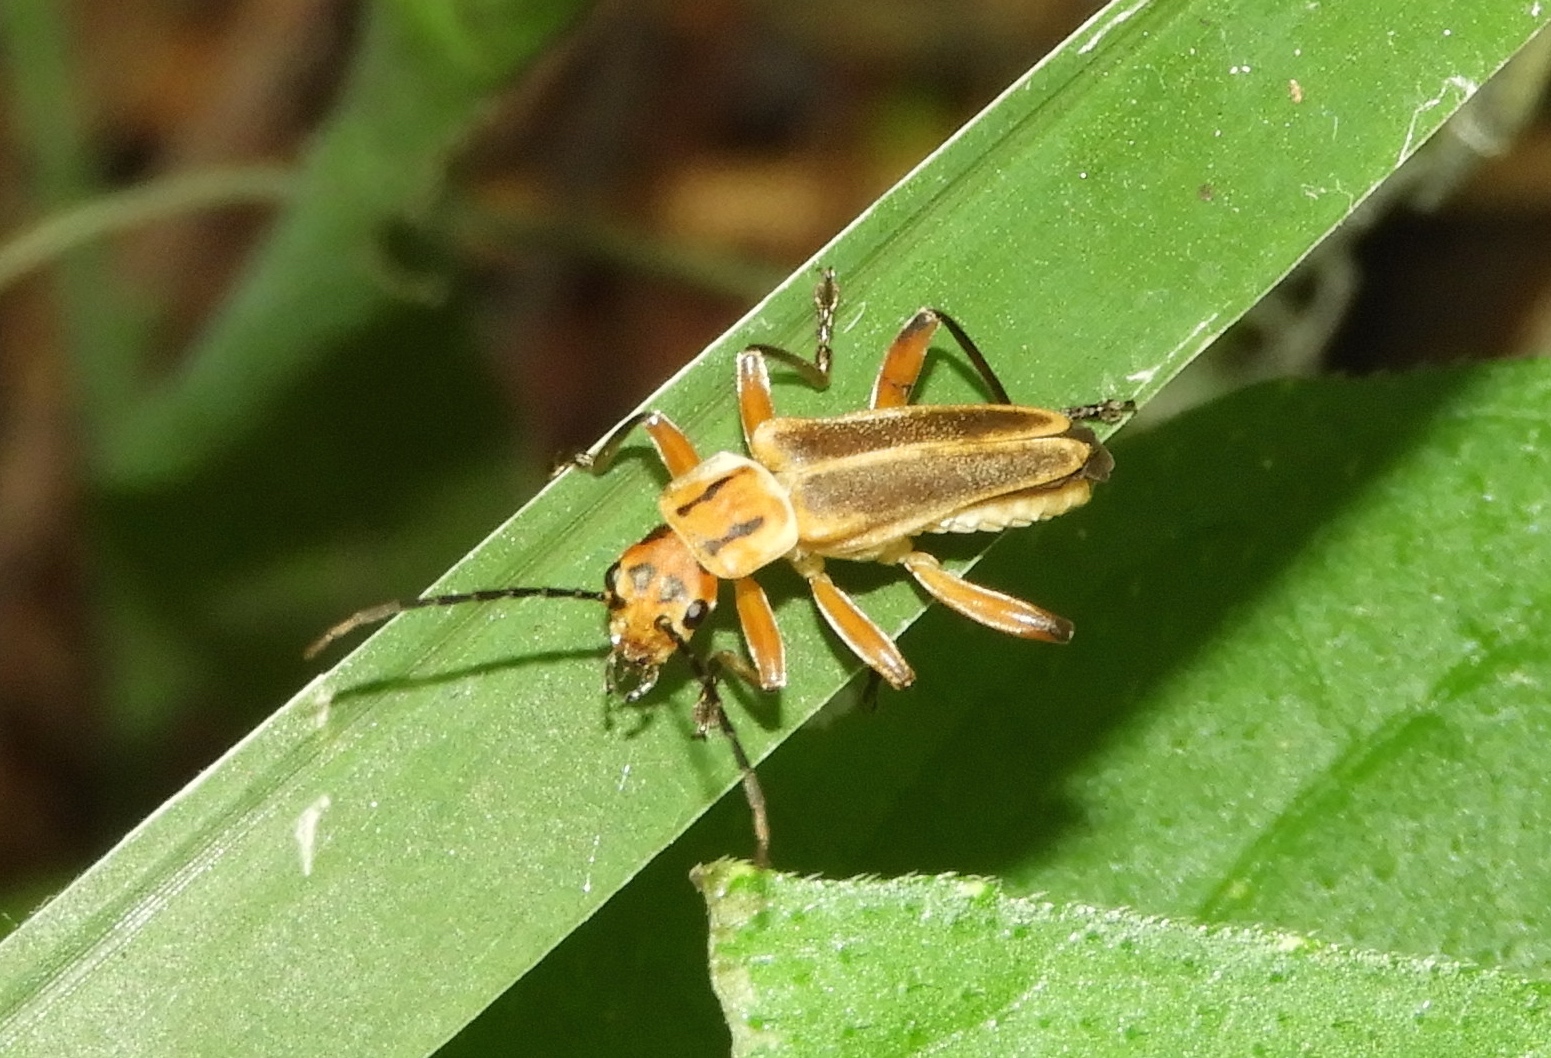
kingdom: Animalia
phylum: Arthropoda
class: Insecta
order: Coleoptera
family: Cantharidae
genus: Chauliognathus
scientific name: Chauliognathus
